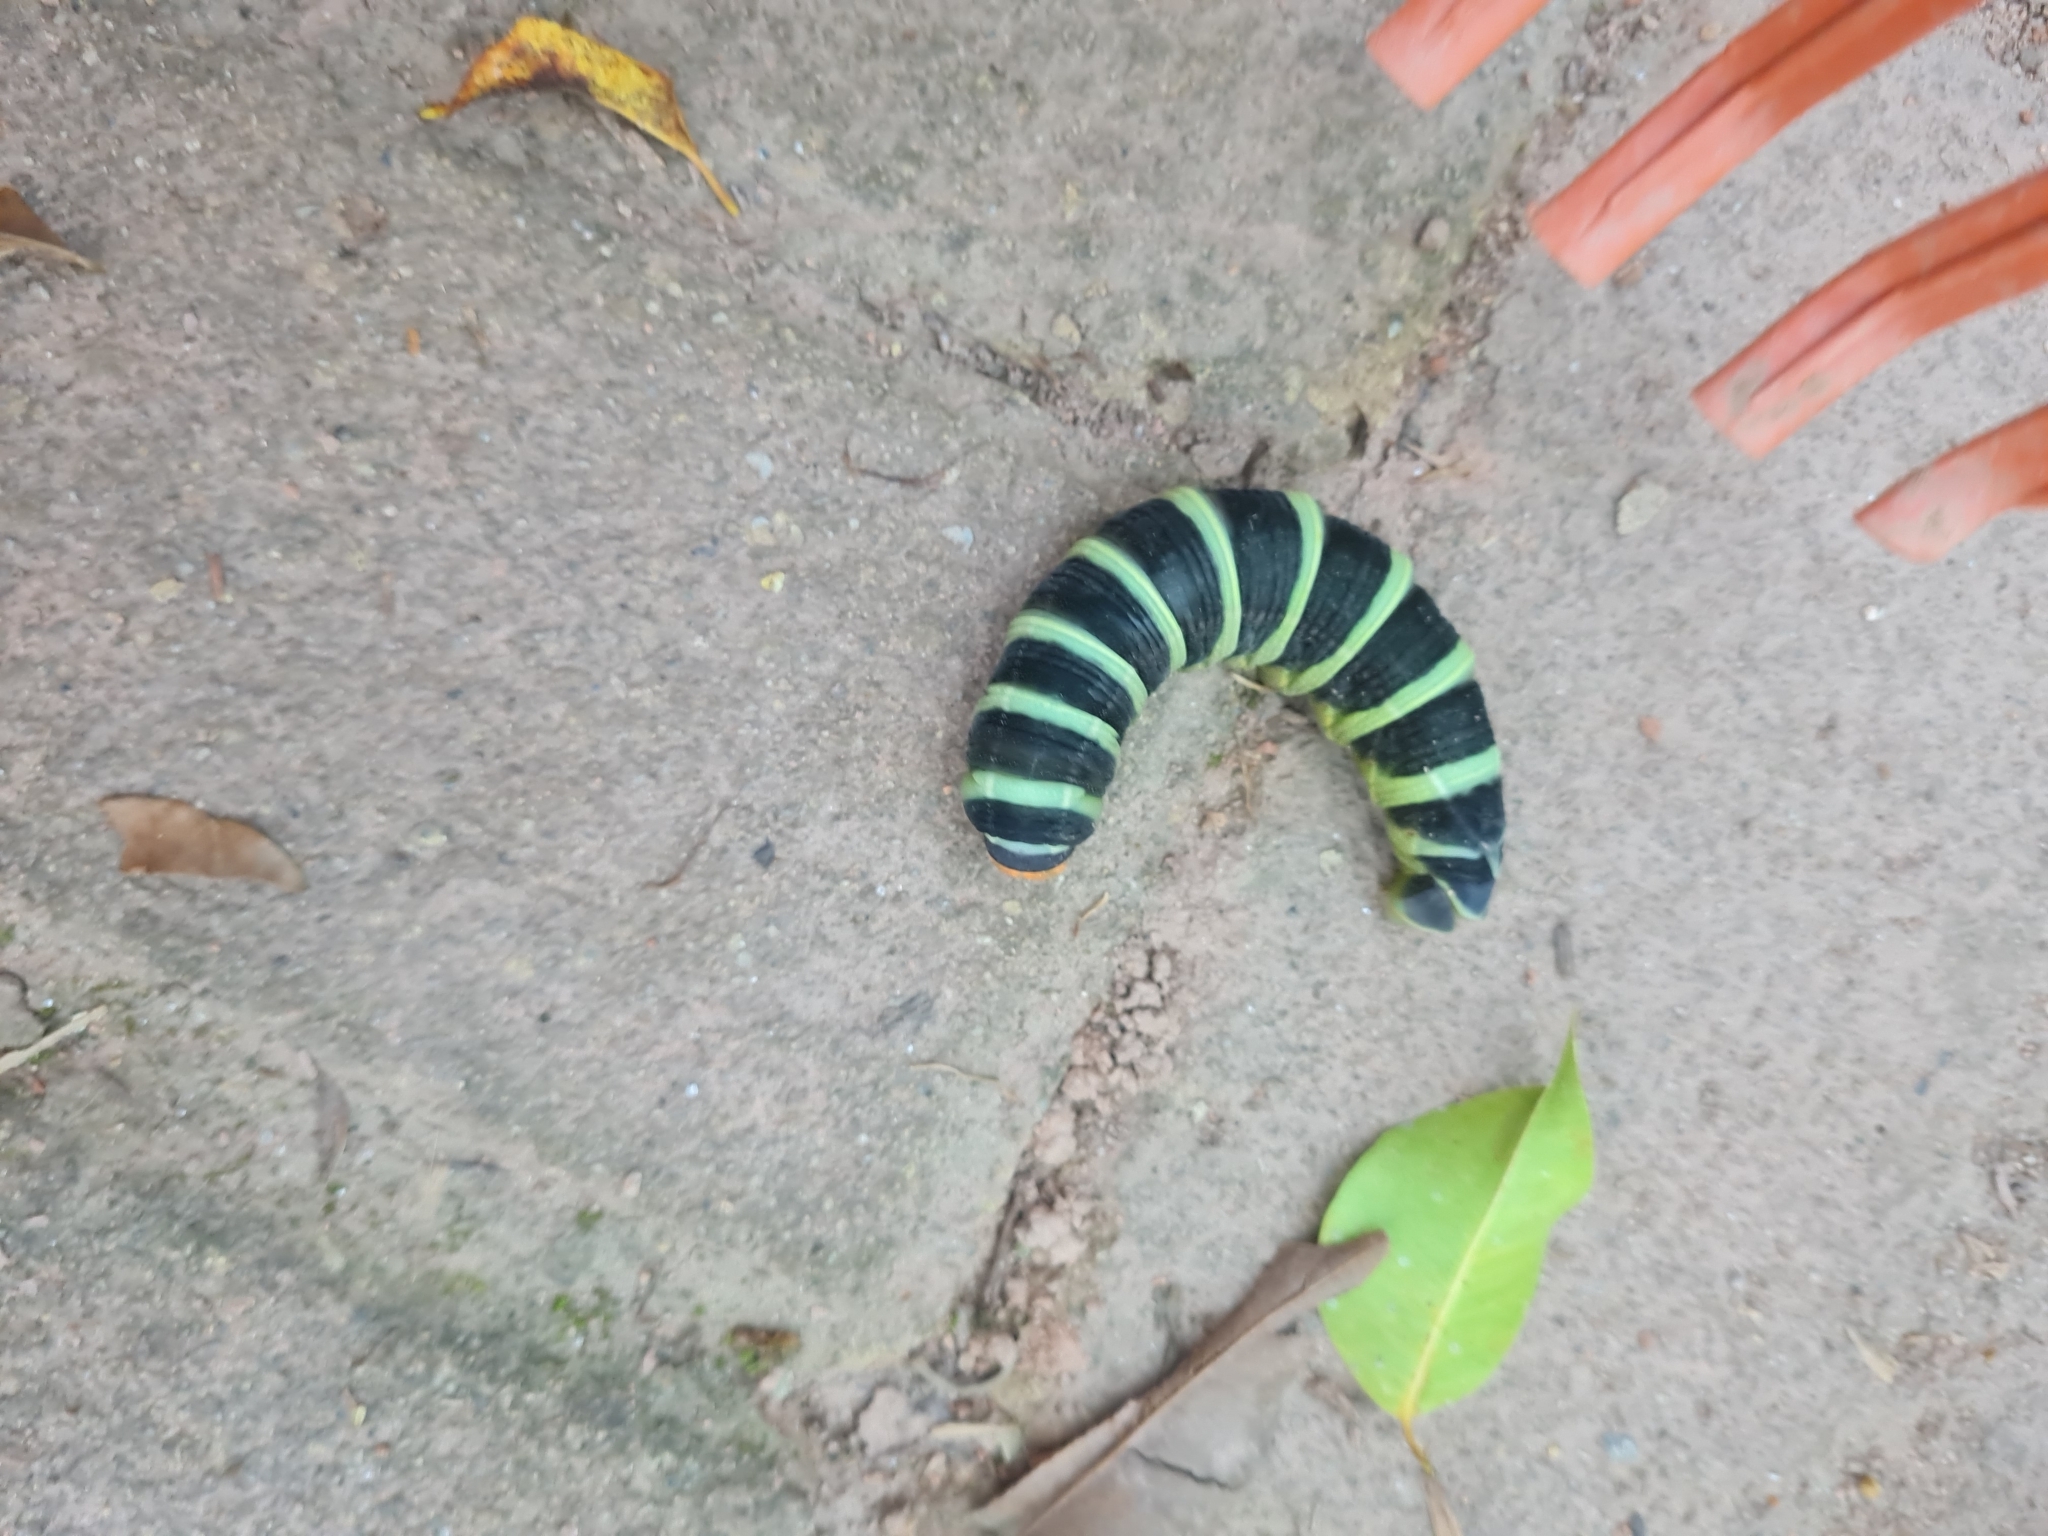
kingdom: Animalia
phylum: Arthropoda
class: Insecta
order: Lepidoptera
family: Sphingidae
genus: Pachylia
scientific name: Pachylia syces
